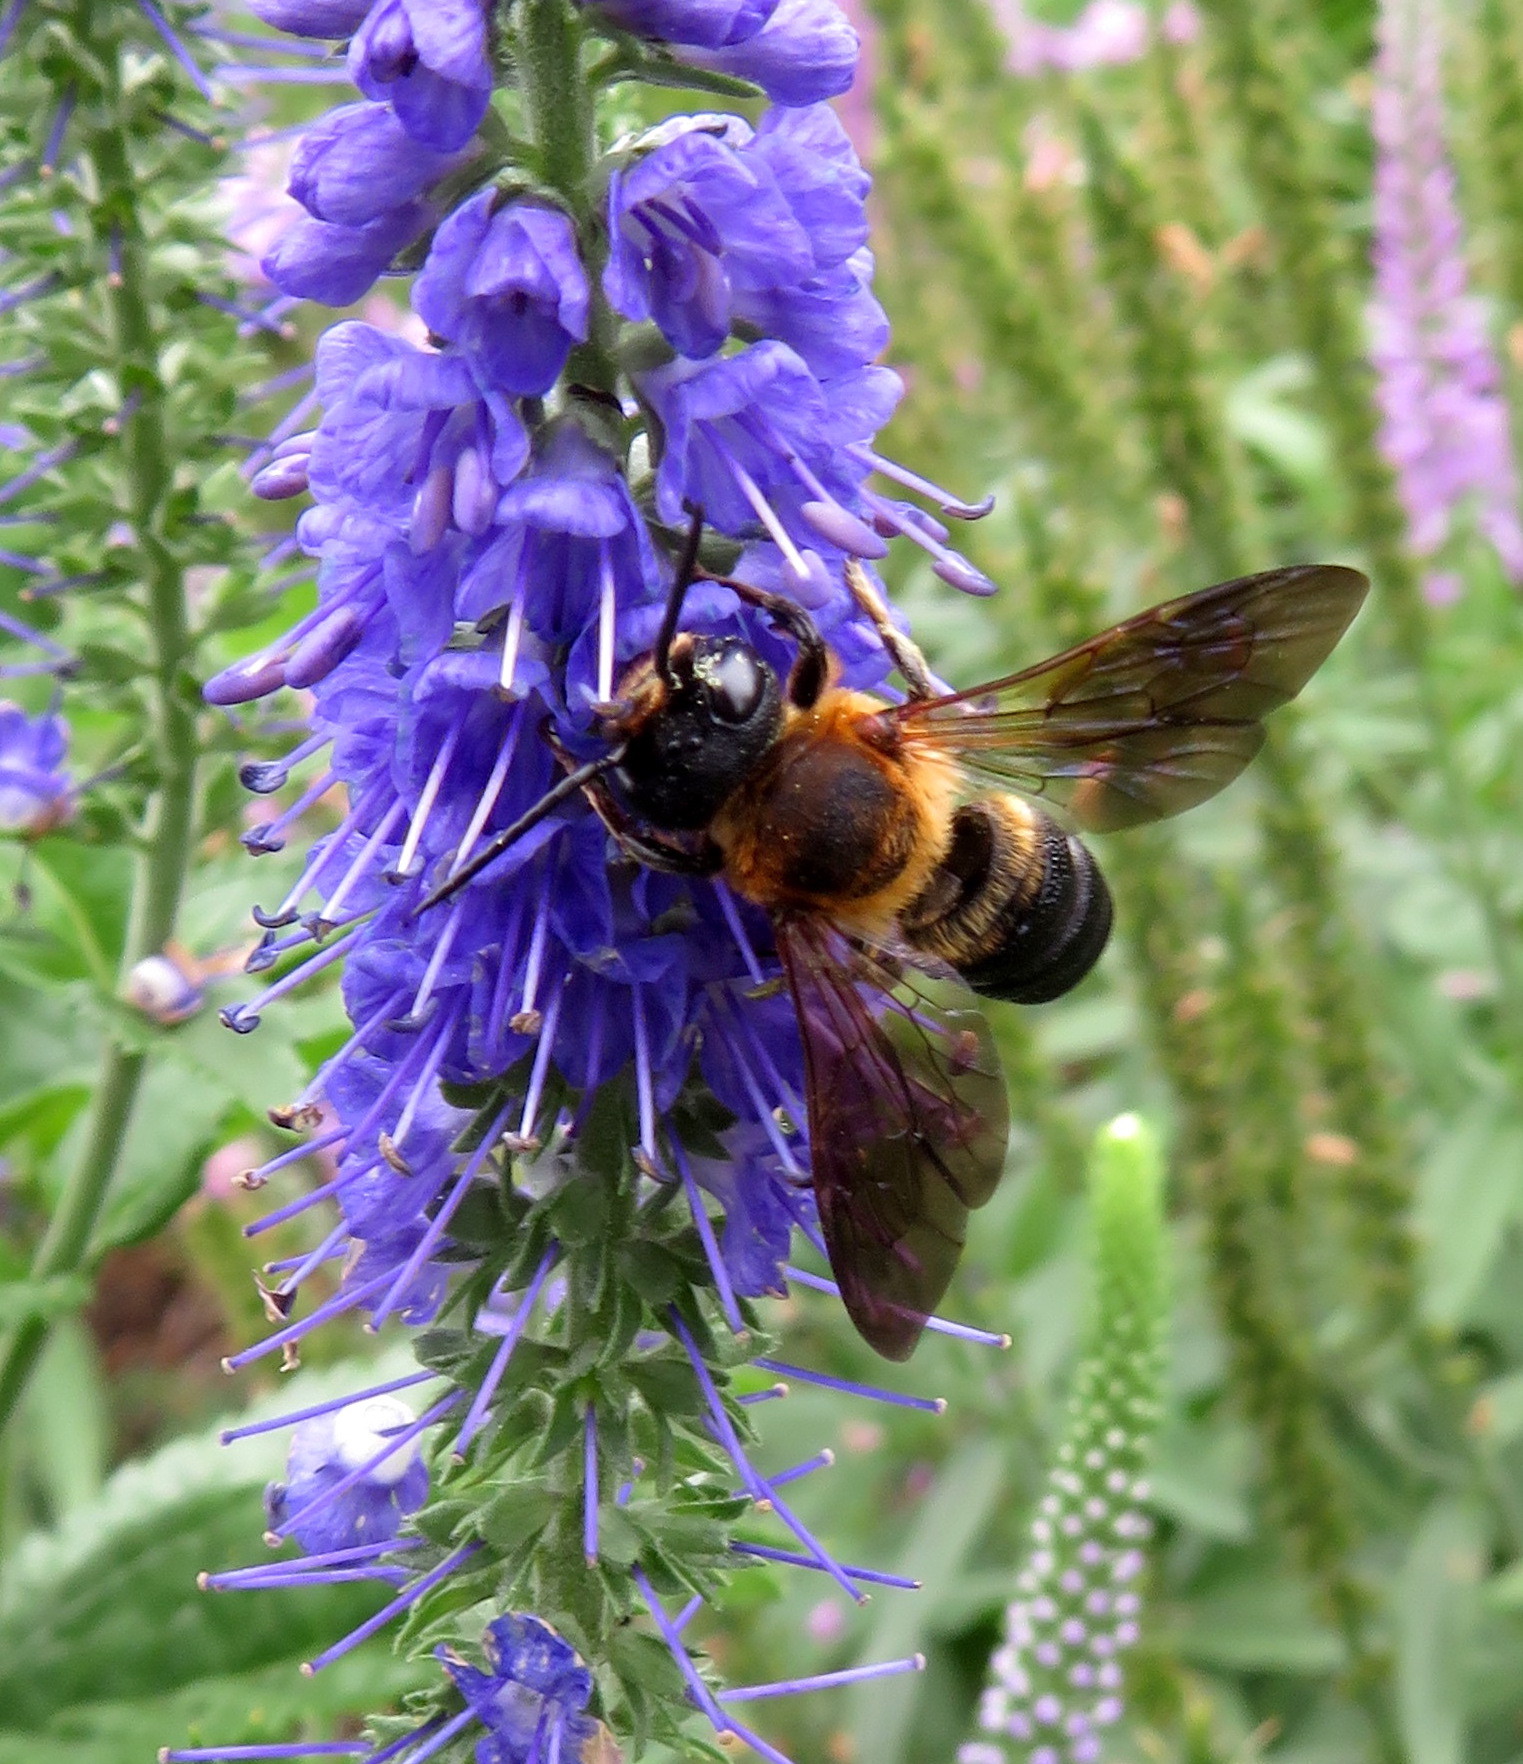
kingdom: Animalia
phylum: Arthropoda
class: Insecta
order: Hymenoptera
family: Megachilidae
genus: Megachile
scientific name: Megachile sculpturalis
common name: Sculptured resin bee
